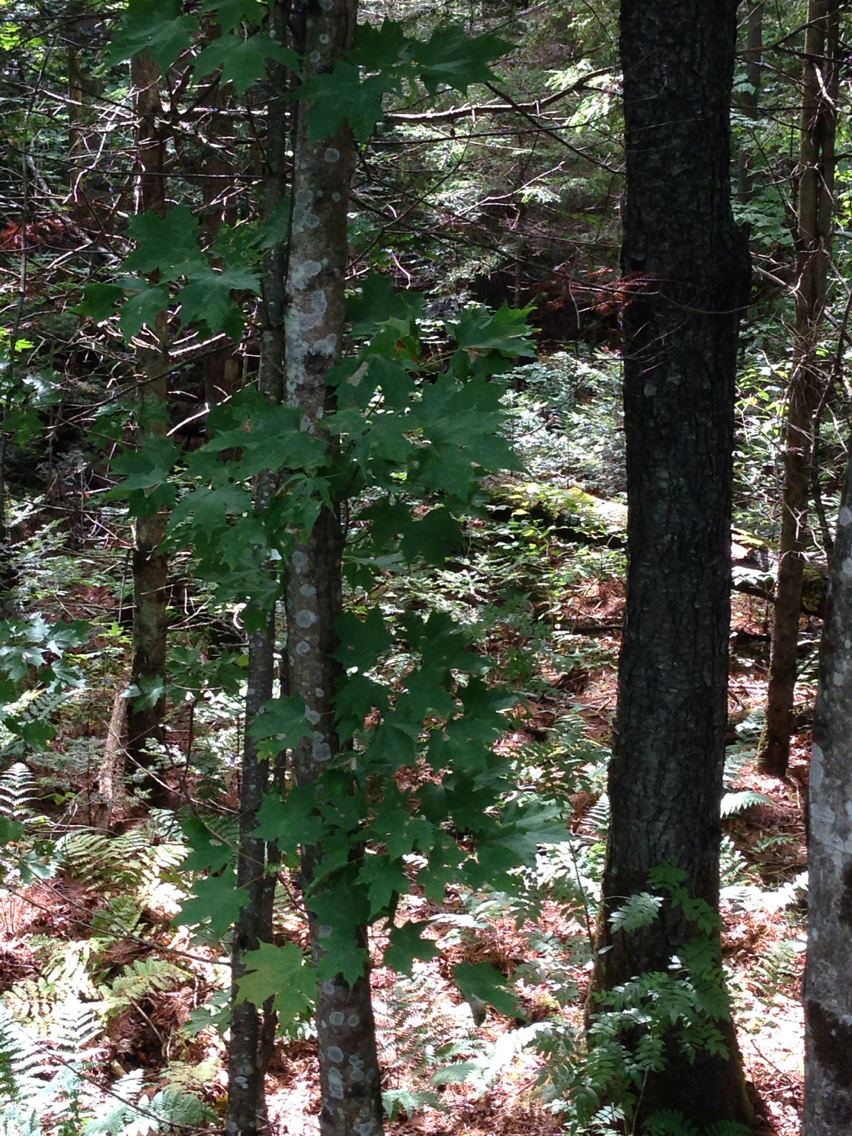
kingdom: Plantae
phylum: Tracheophyta
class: Magnoliopsida
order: Sapindales
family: Sapindaceae
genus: Acer
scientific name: Acer saccharum
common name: Sugar maple
